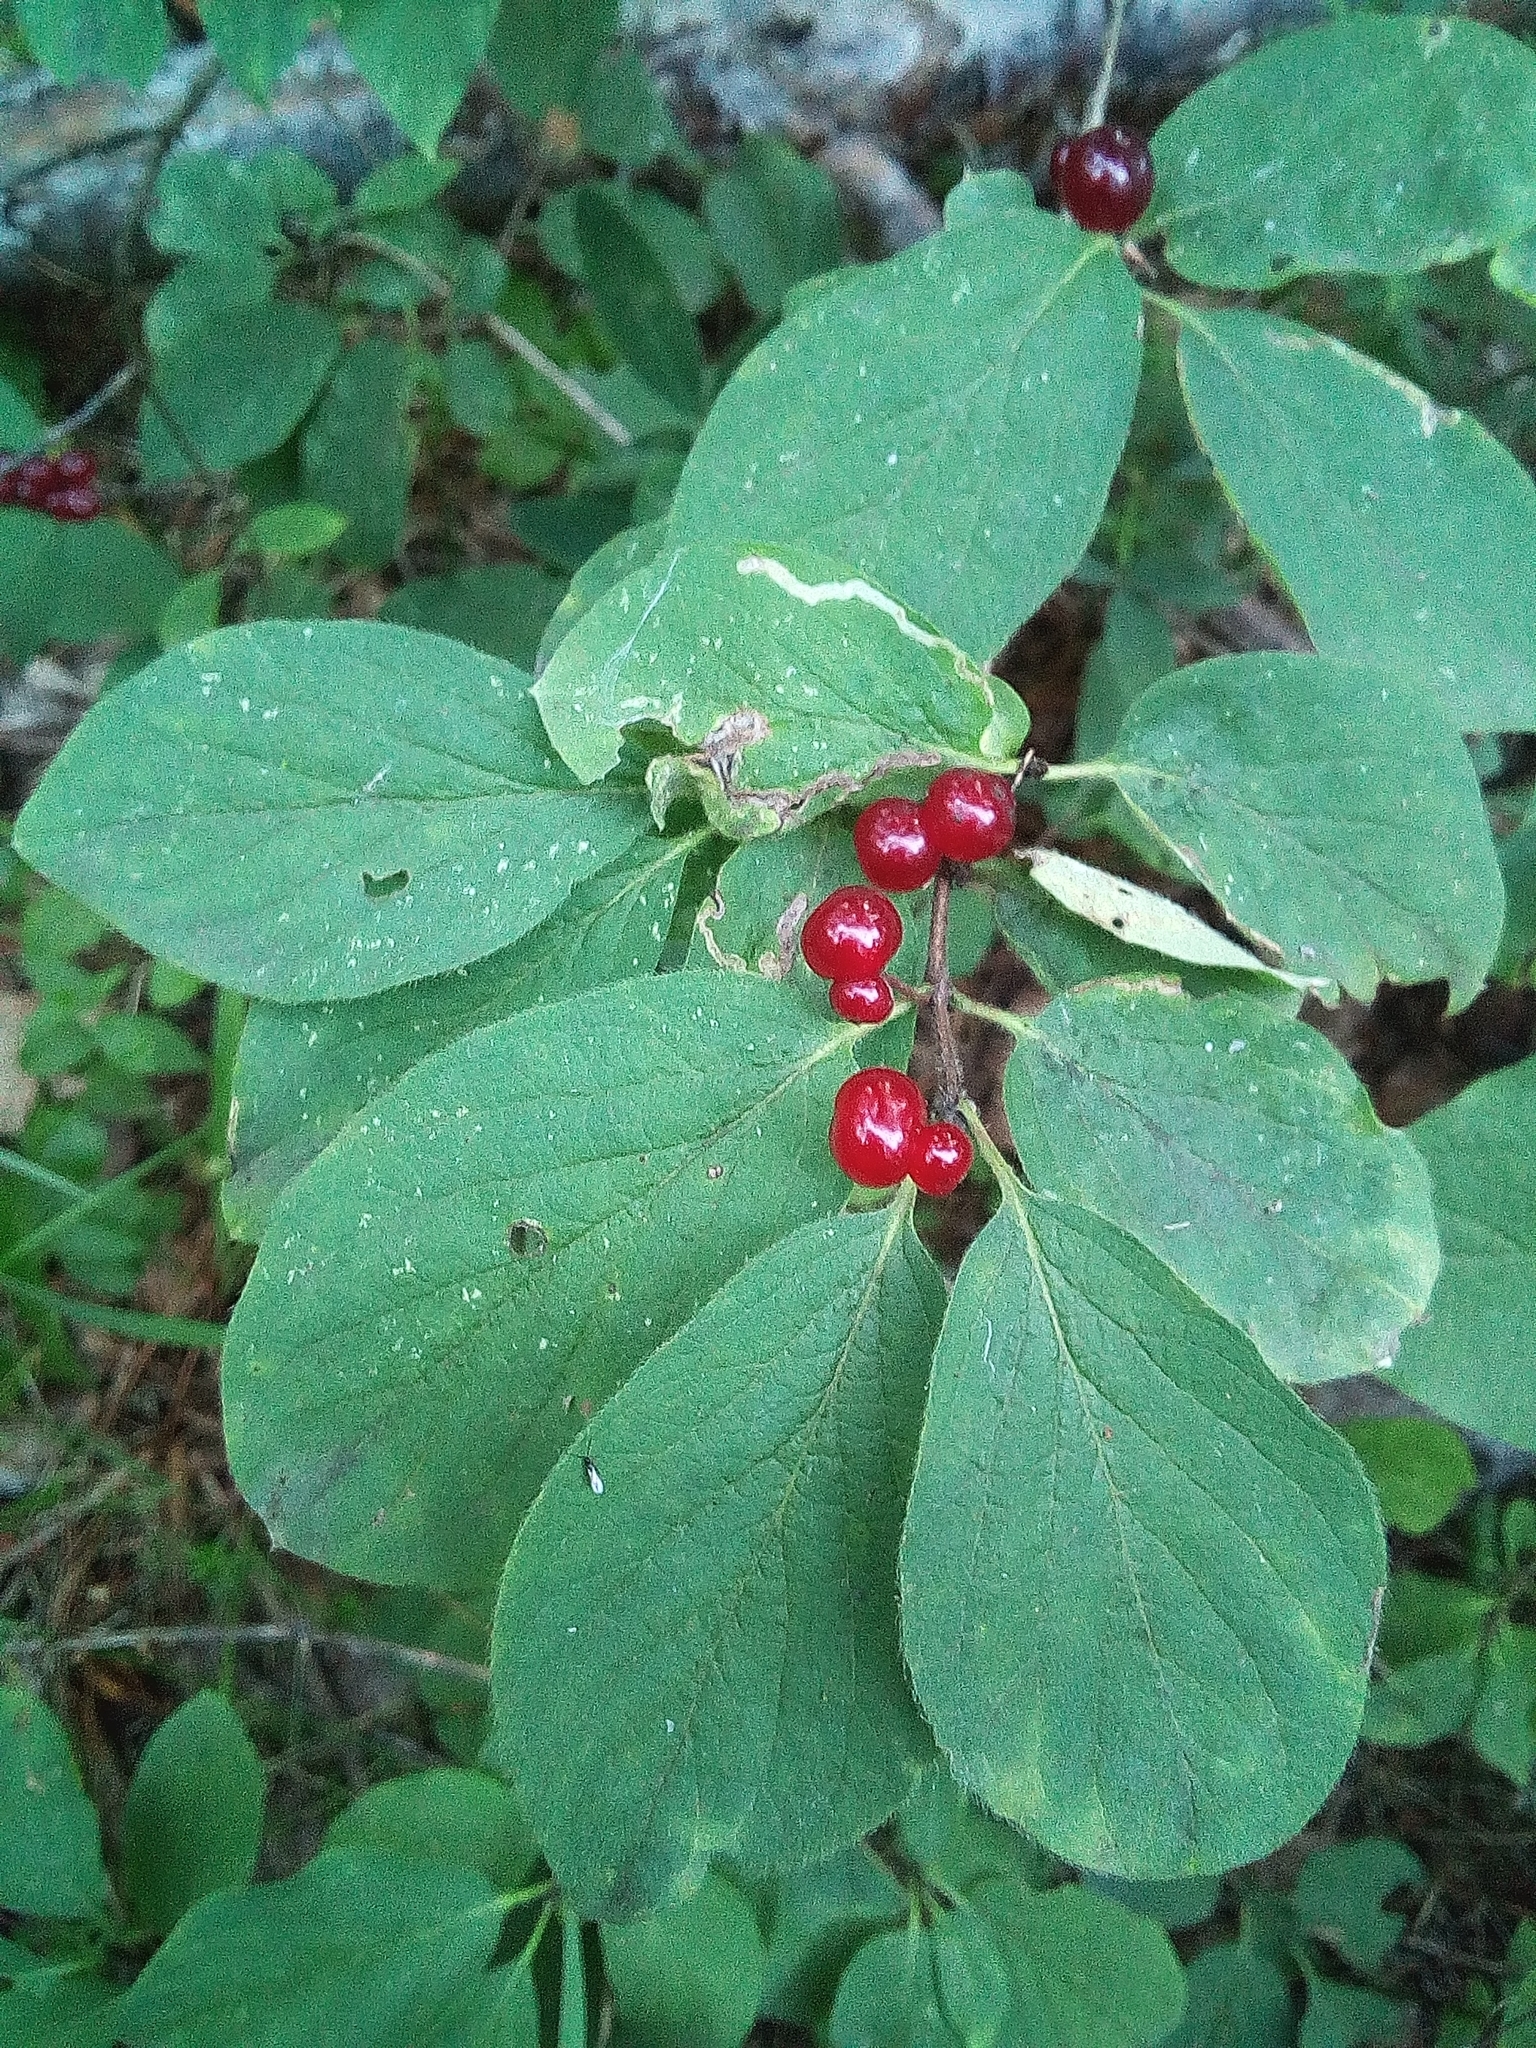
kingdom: Plantae
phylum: Tracheophyta
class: Magnoliopsida
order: Dipsacales
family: Caprifoliaceae
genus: Lonicera
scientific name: Lonicera xylosteum
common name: Fly honeysuckle
